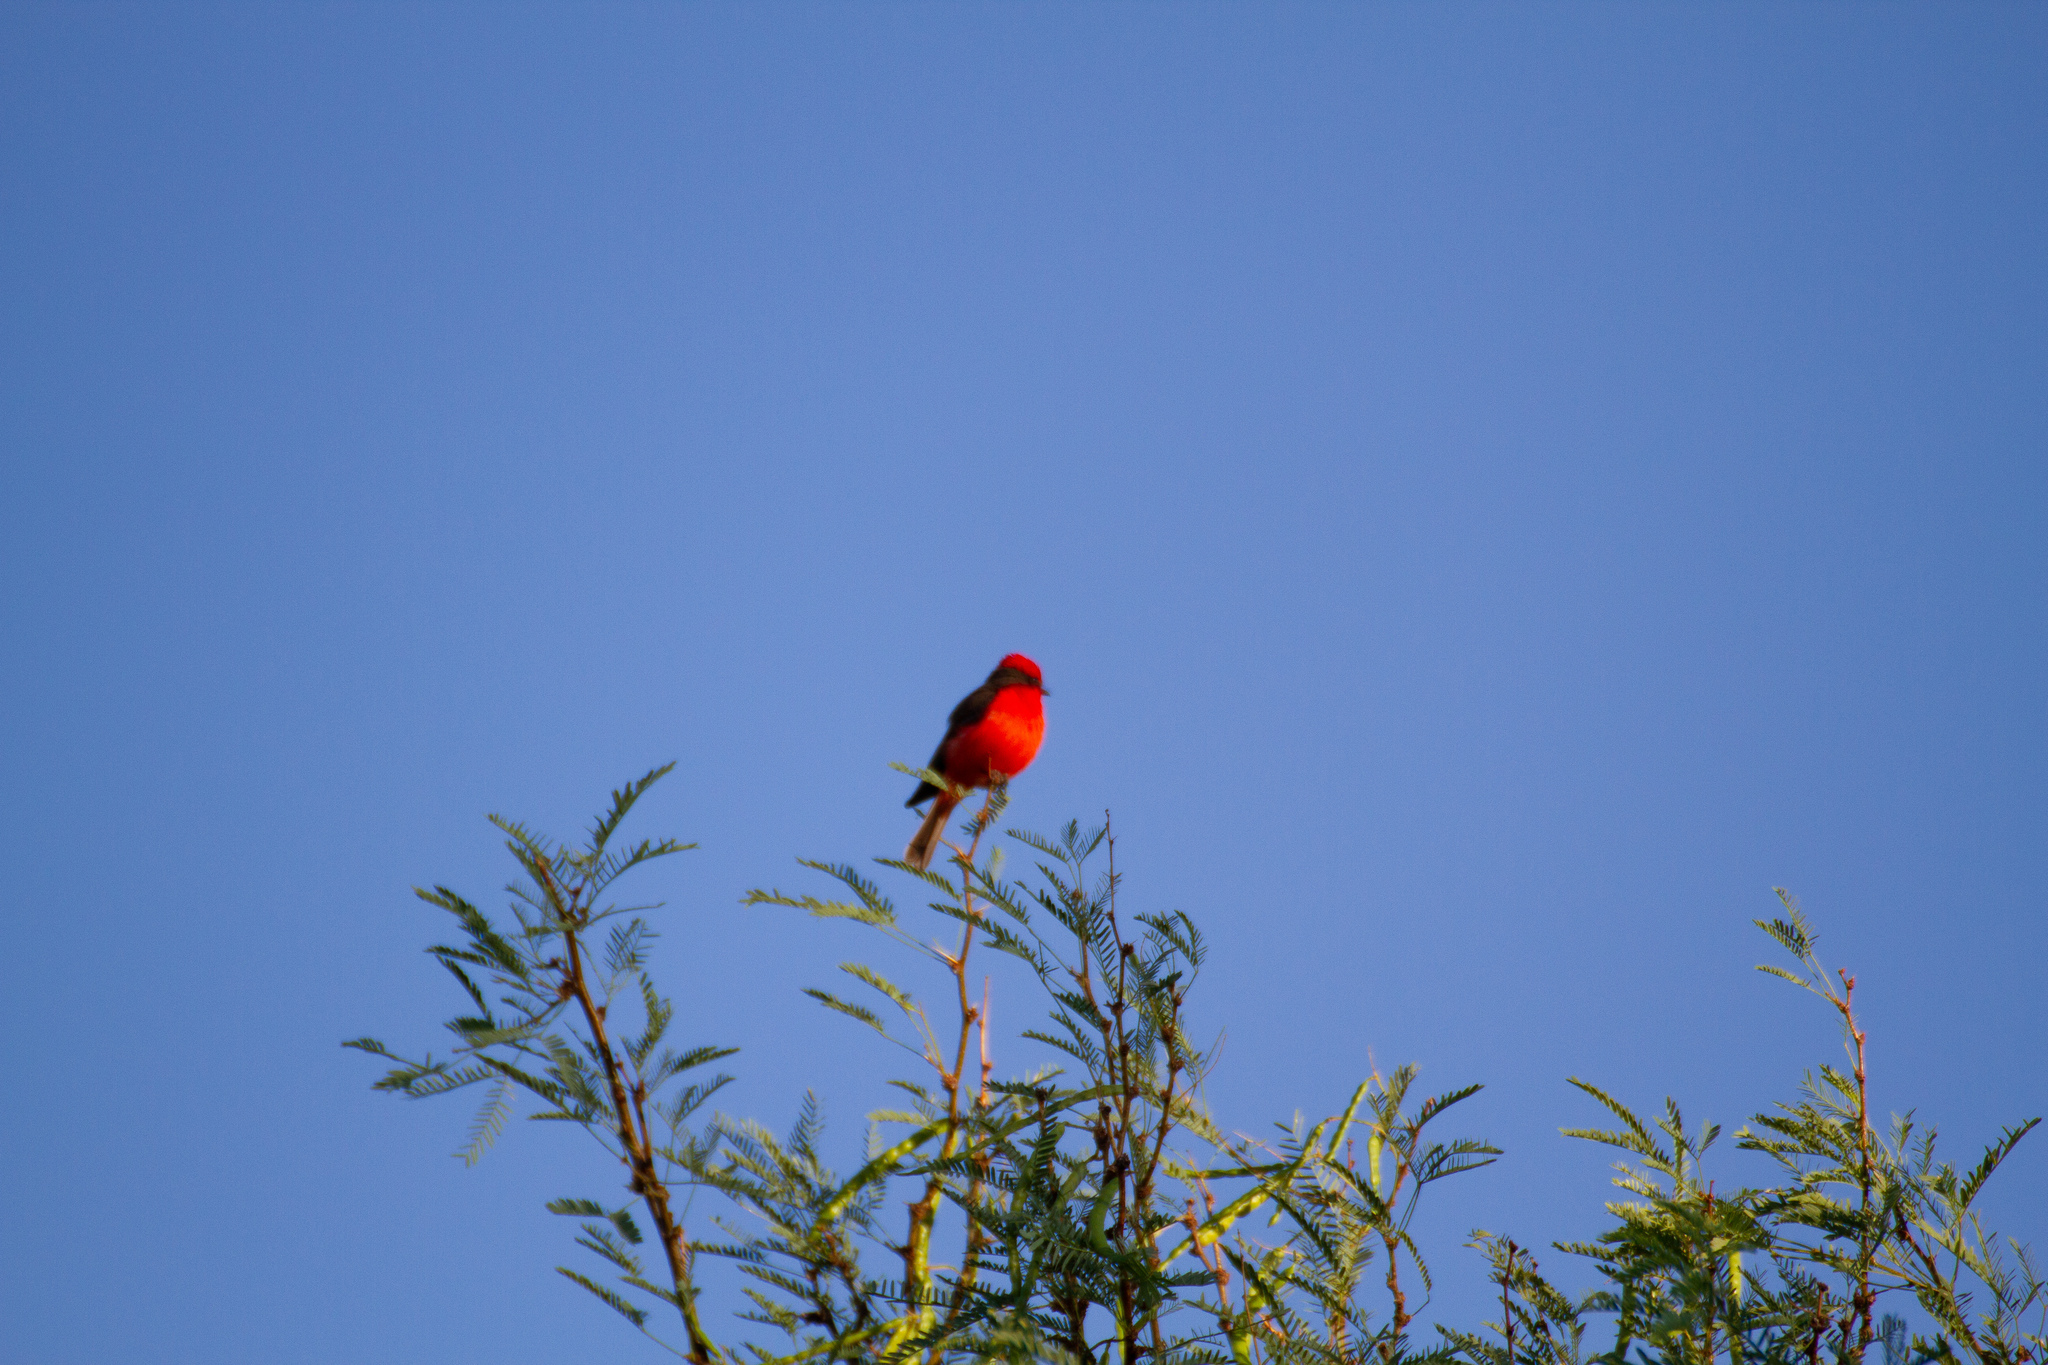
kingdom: Animalia
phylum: Chordata
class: Aves
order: Passeriformes
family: Tyrannidae
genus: Pyrocephalus
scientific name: Pyrocephalus rubinus
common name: Vermilion flycatcher
